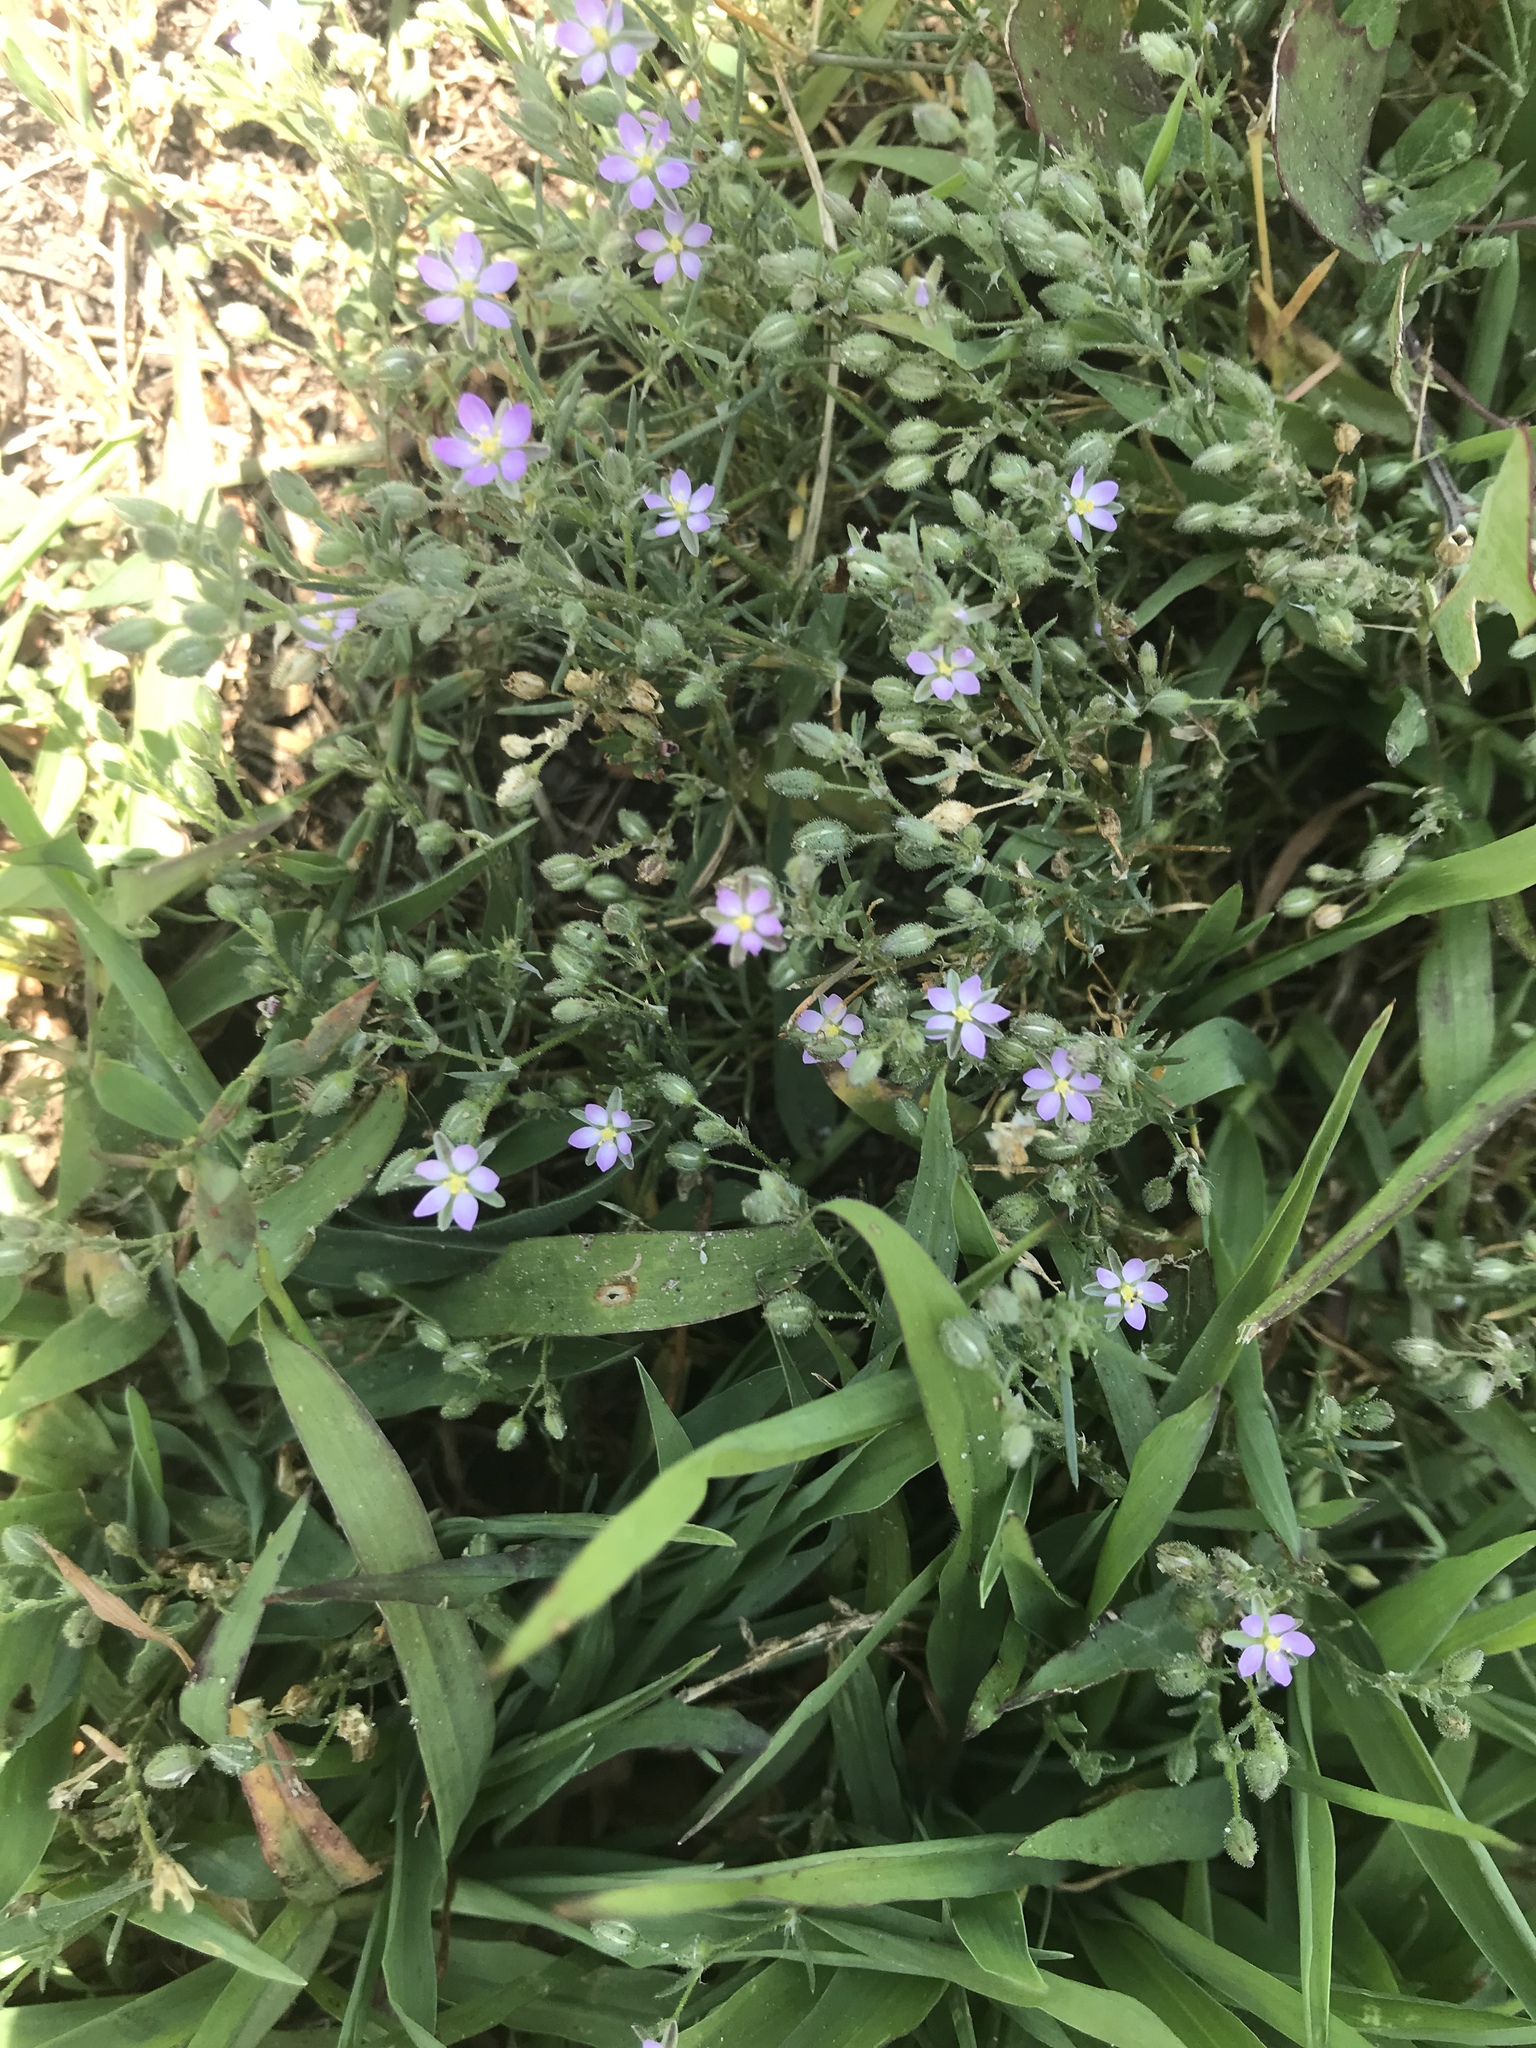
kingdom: Plantae
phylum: Tracheophyta
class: Magnoliopsida
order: Caryophyllales
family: Caryophyllaceae
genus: Spergularia
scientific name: Spergularia rubra
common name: Red sand-spurrey
